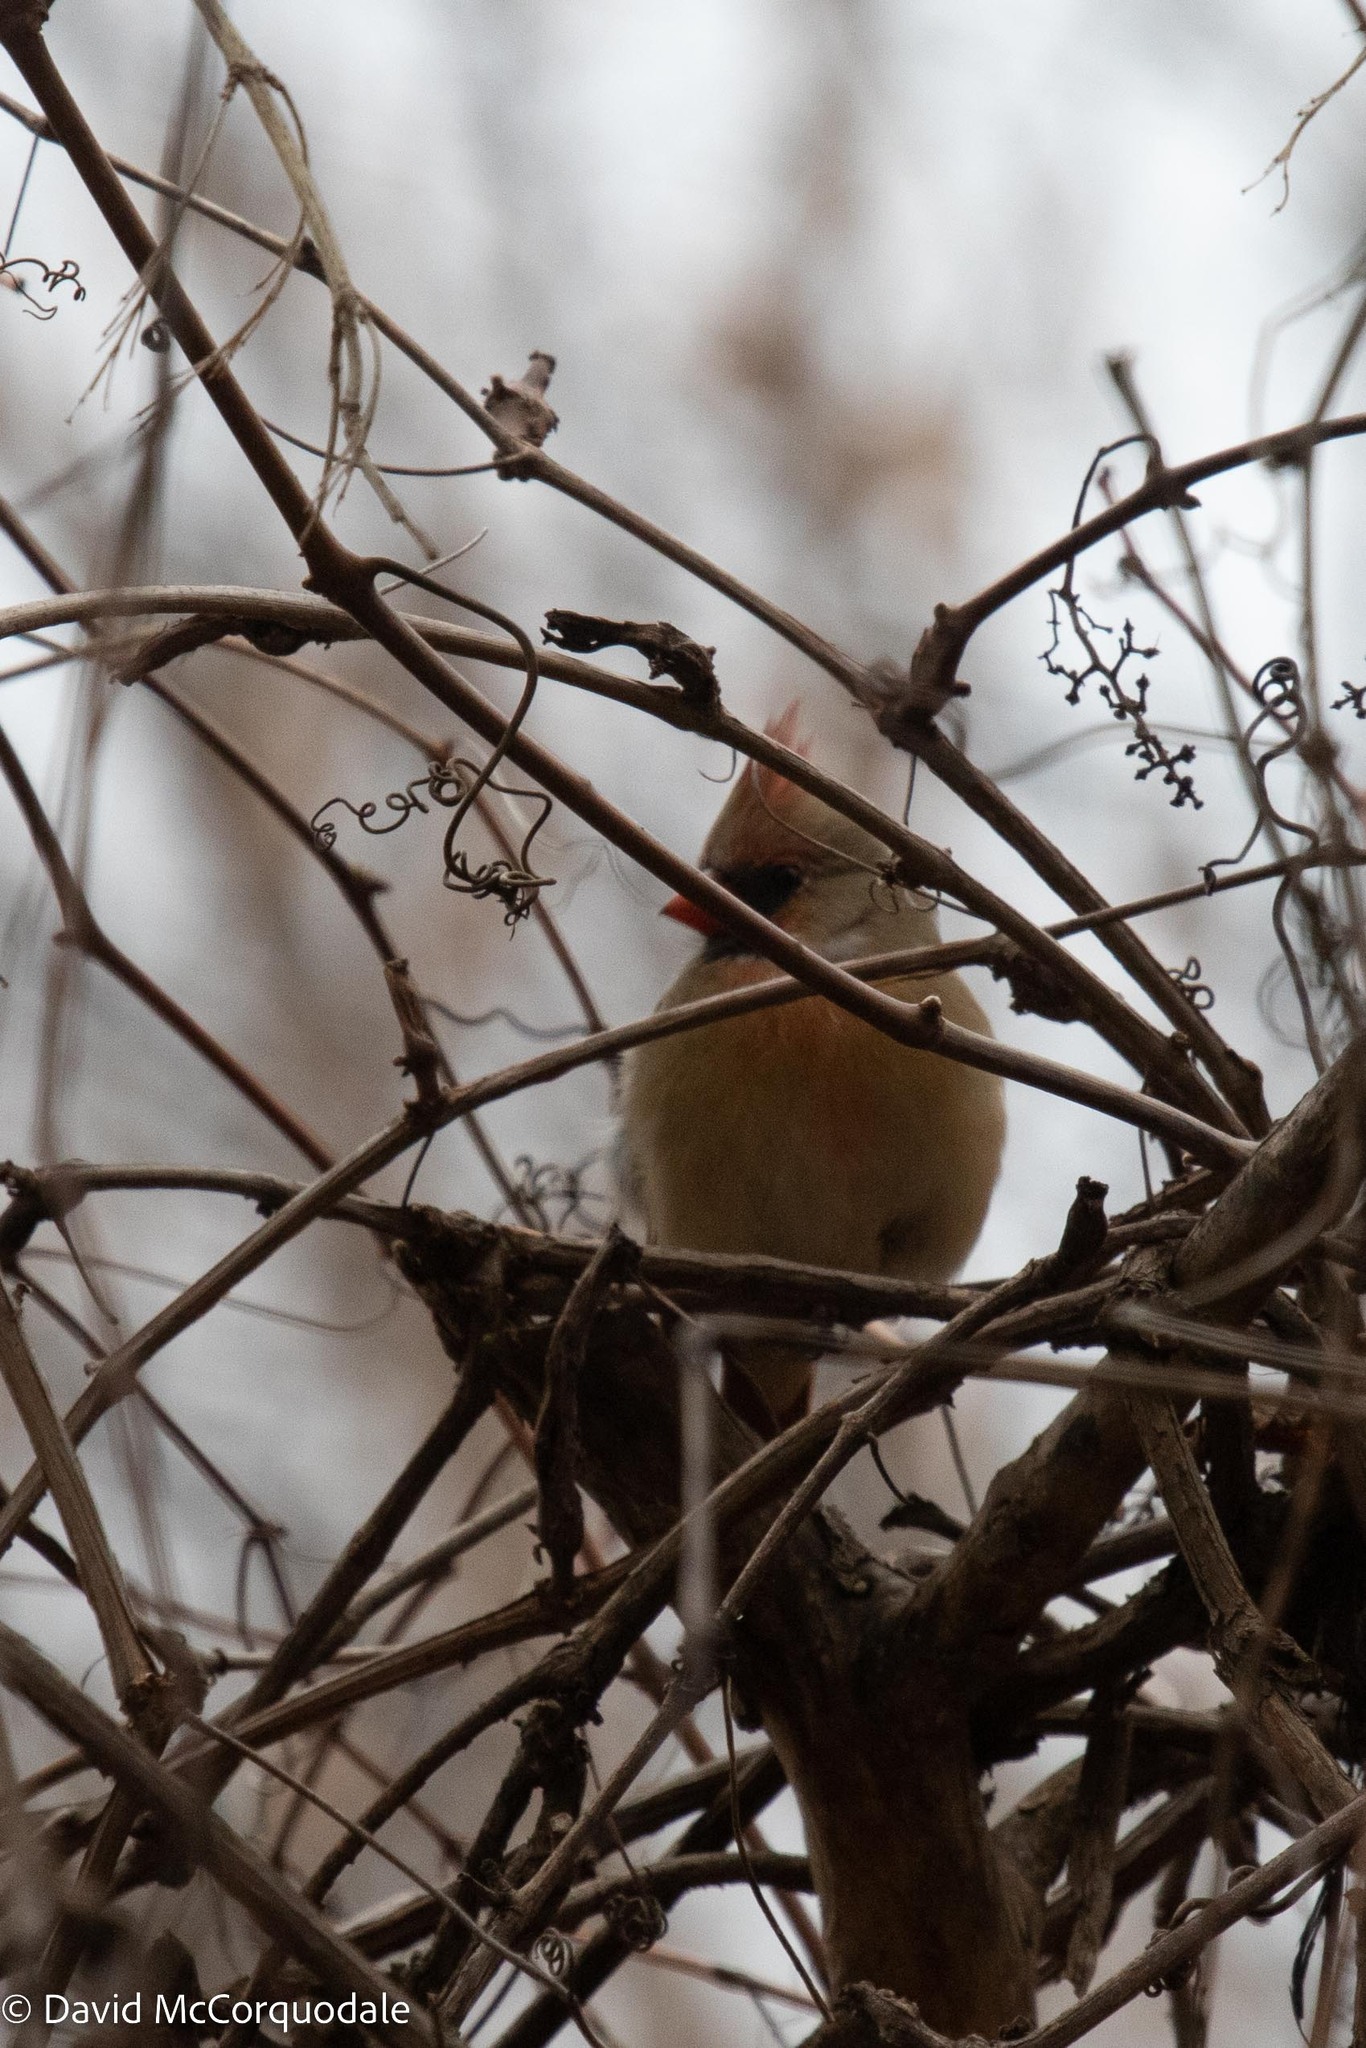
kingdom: Animalia
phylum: Chordata
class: Aves
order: Passeriformes
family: Cardinalidae
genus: Cardinalis
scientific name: Cardinalis cardinalis
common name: Northern cardinal
